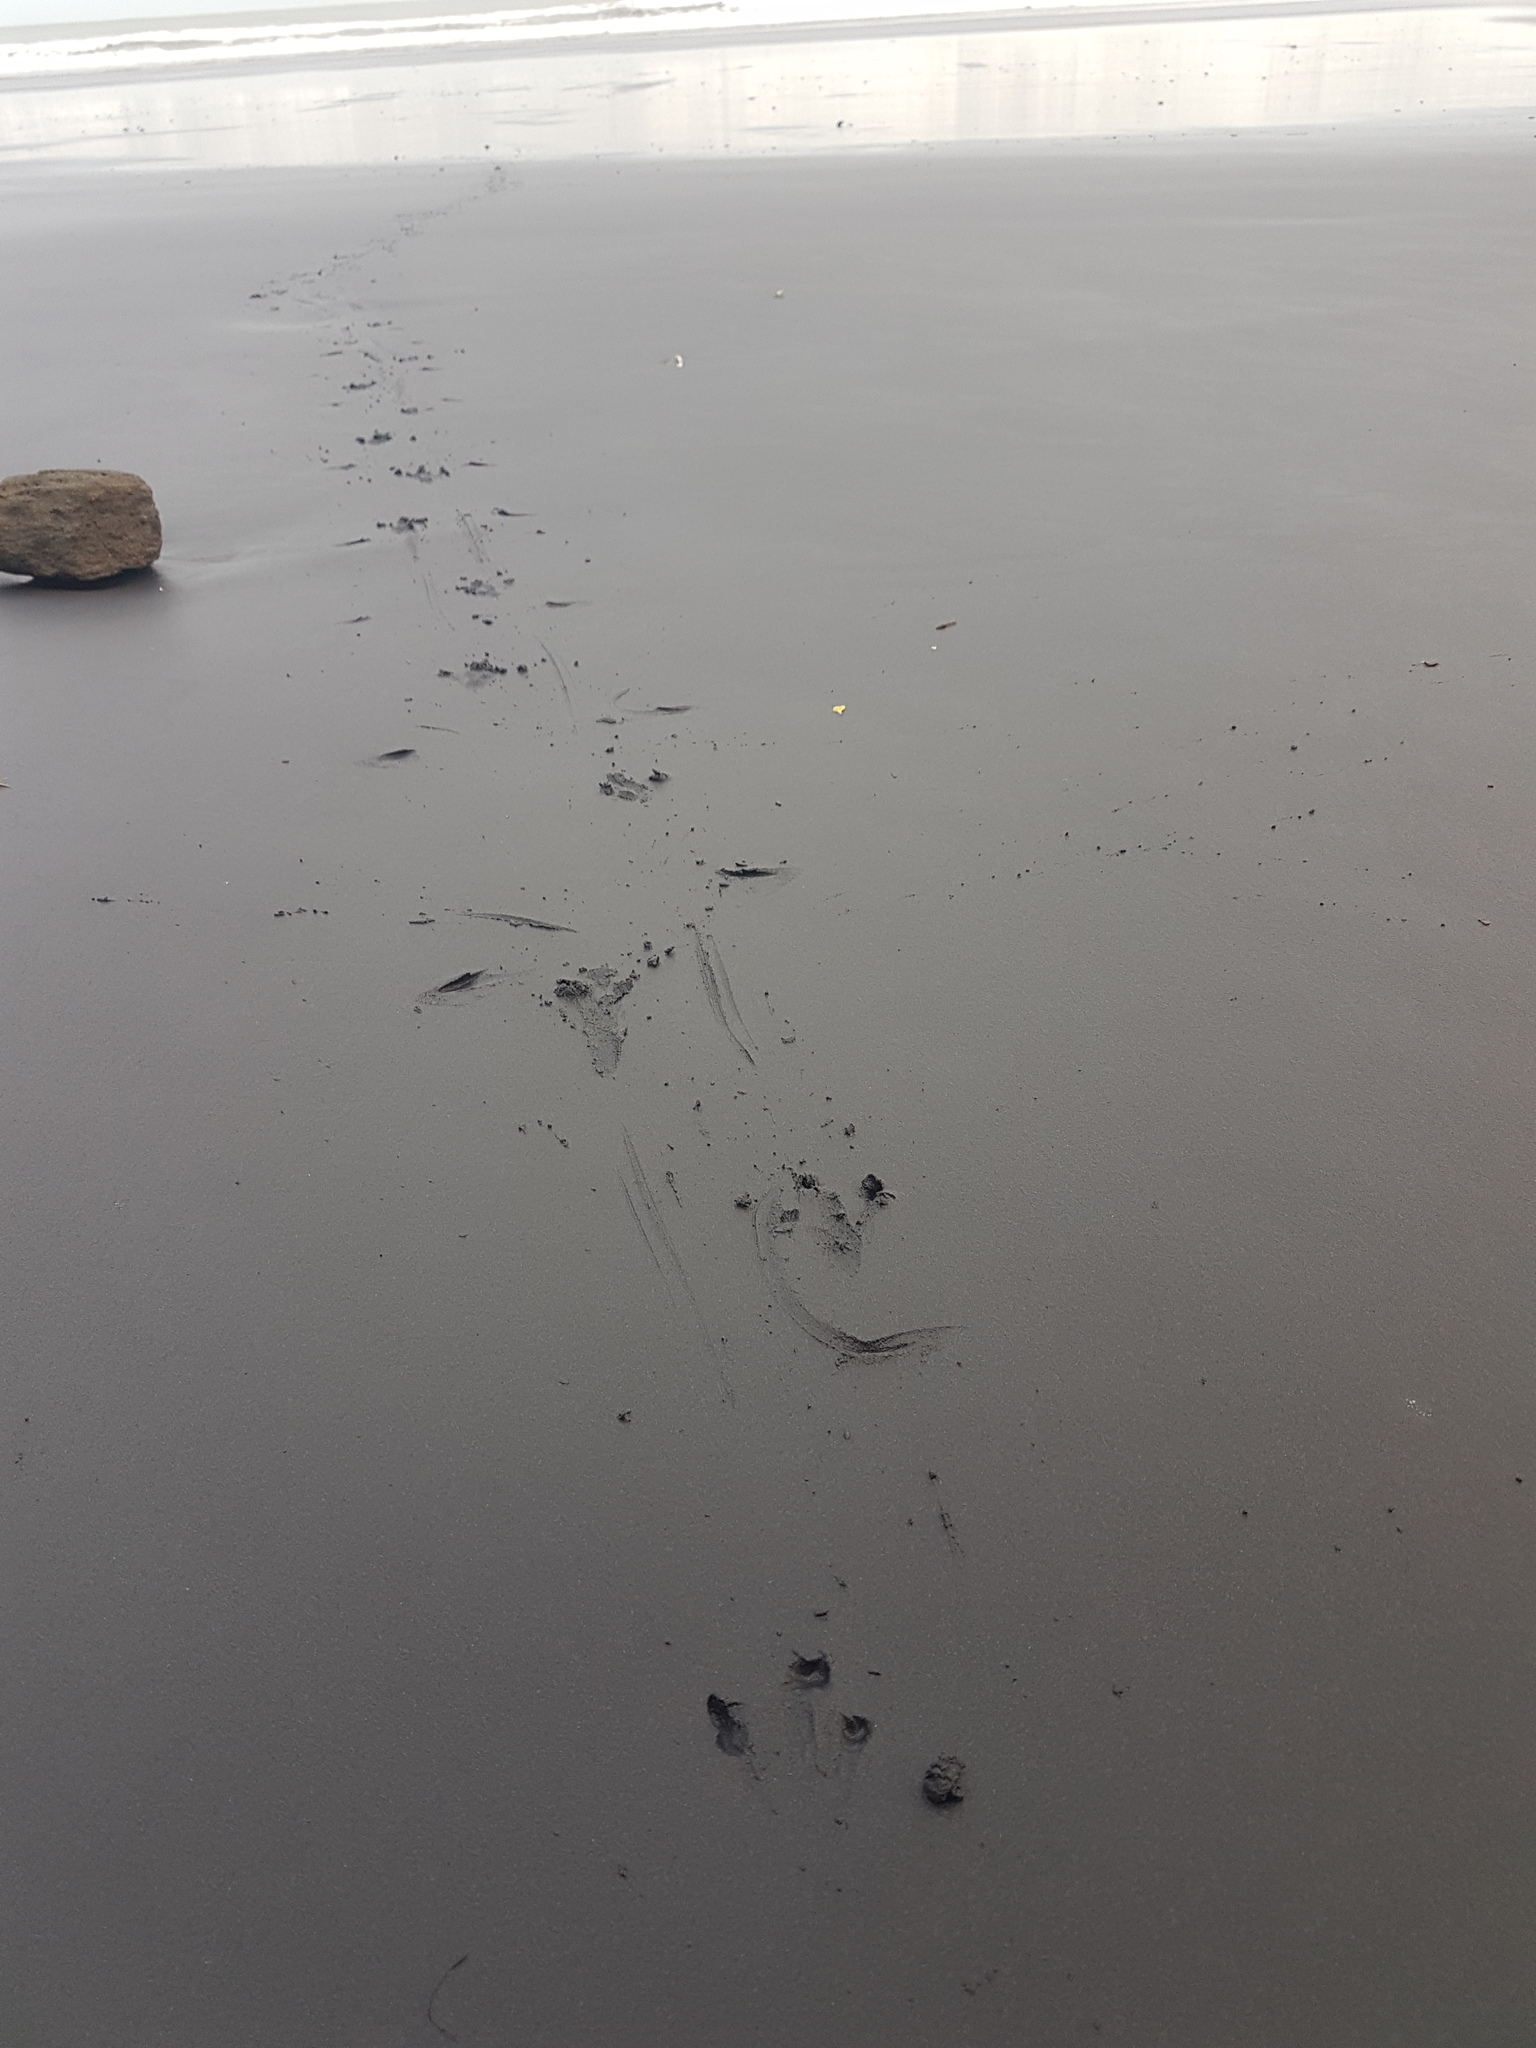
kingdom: Animalia
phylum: Chordata
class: Aves
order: Sphenisciformes
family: Spheniscidae
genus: Eudyptula
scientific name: Eudyptula minor
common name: Little penguin
